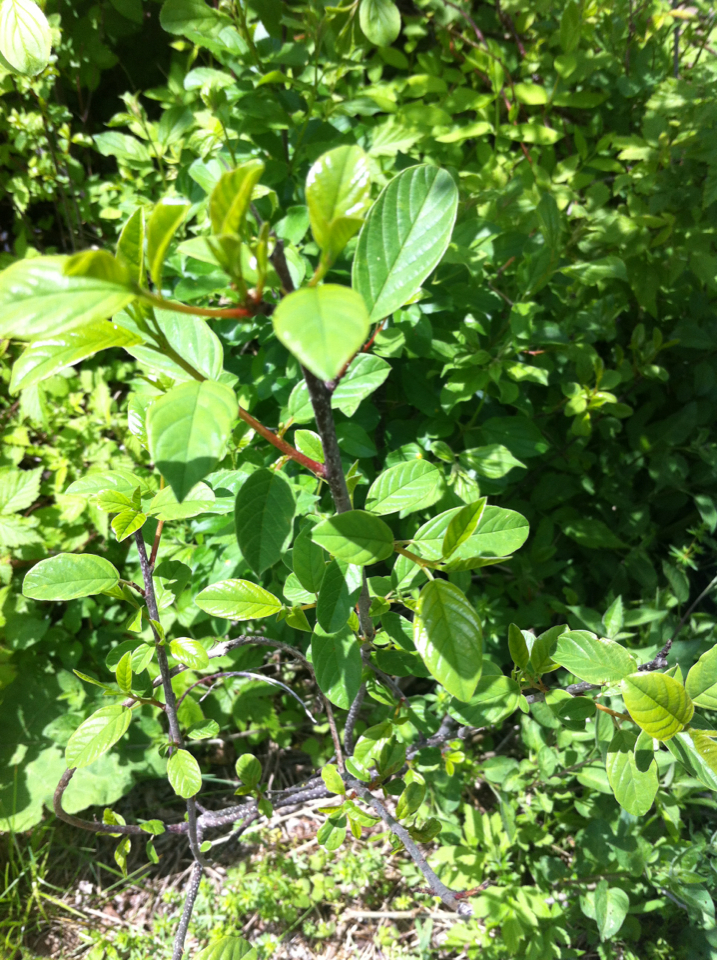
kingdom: Plantae
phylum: Tracheophyta
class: Magnoliopsida
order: Rosales
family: Rhamnaceae
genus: Frangula
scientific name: Frangula alnus
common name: Alder buckthorn
